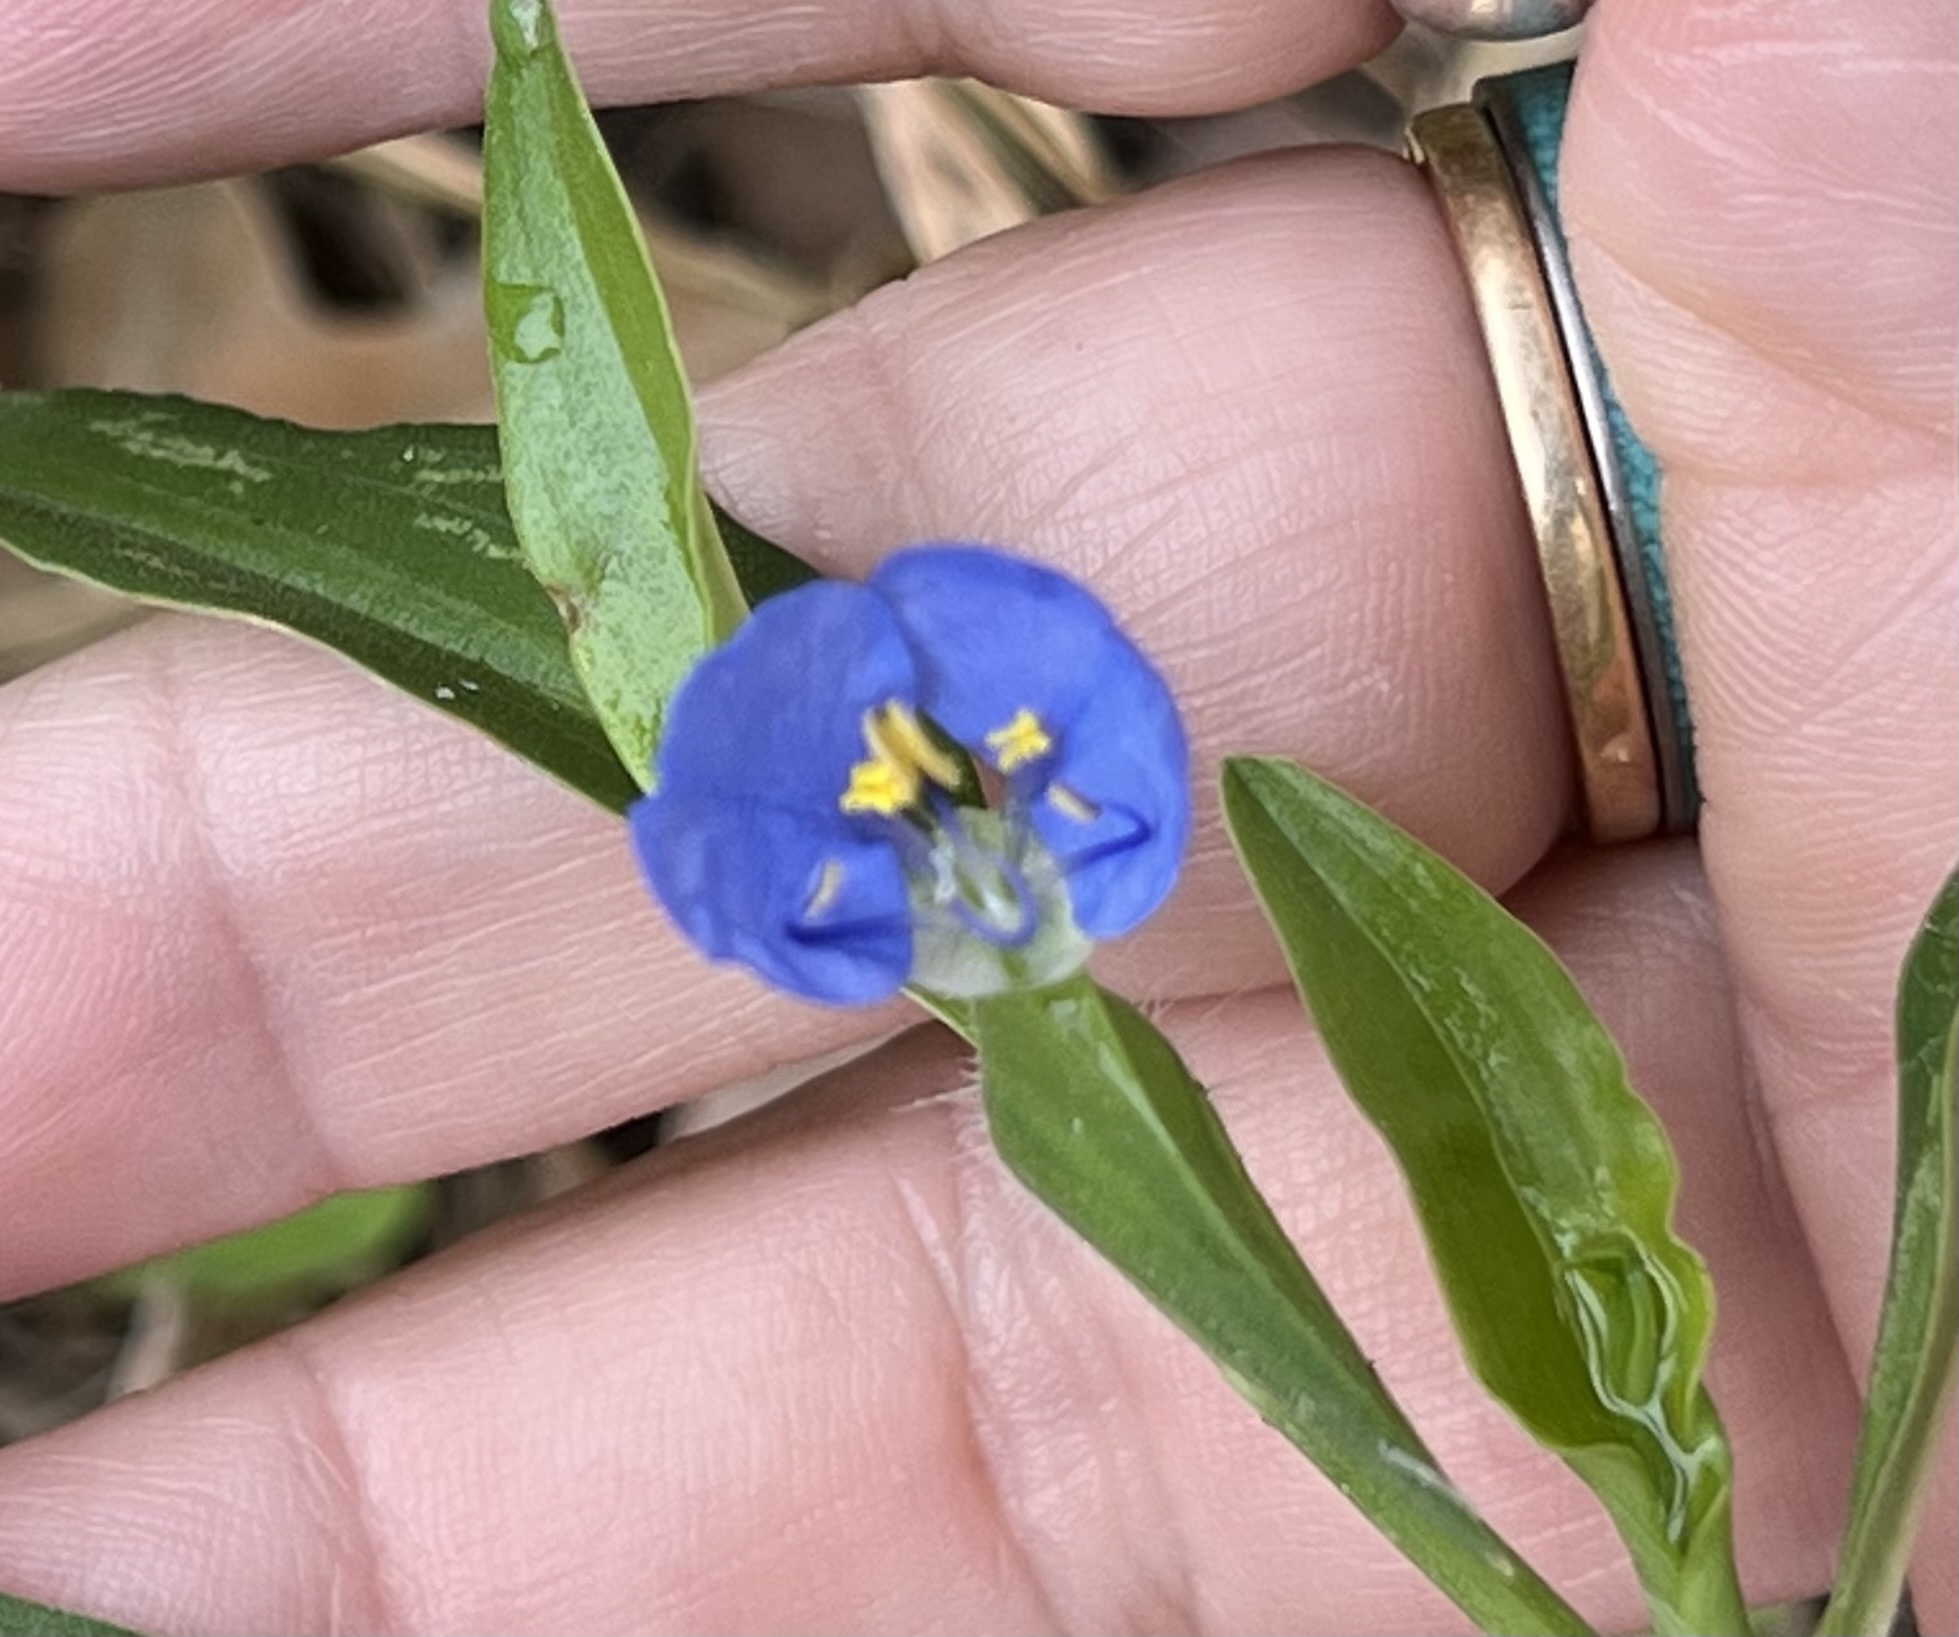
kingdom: Plantae
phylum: Tracheophyta
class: Liliopsida
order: Commelinales
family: Commelinaceae
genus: Commelina
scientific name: Commelina erecta
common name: Blousel blommetjie
